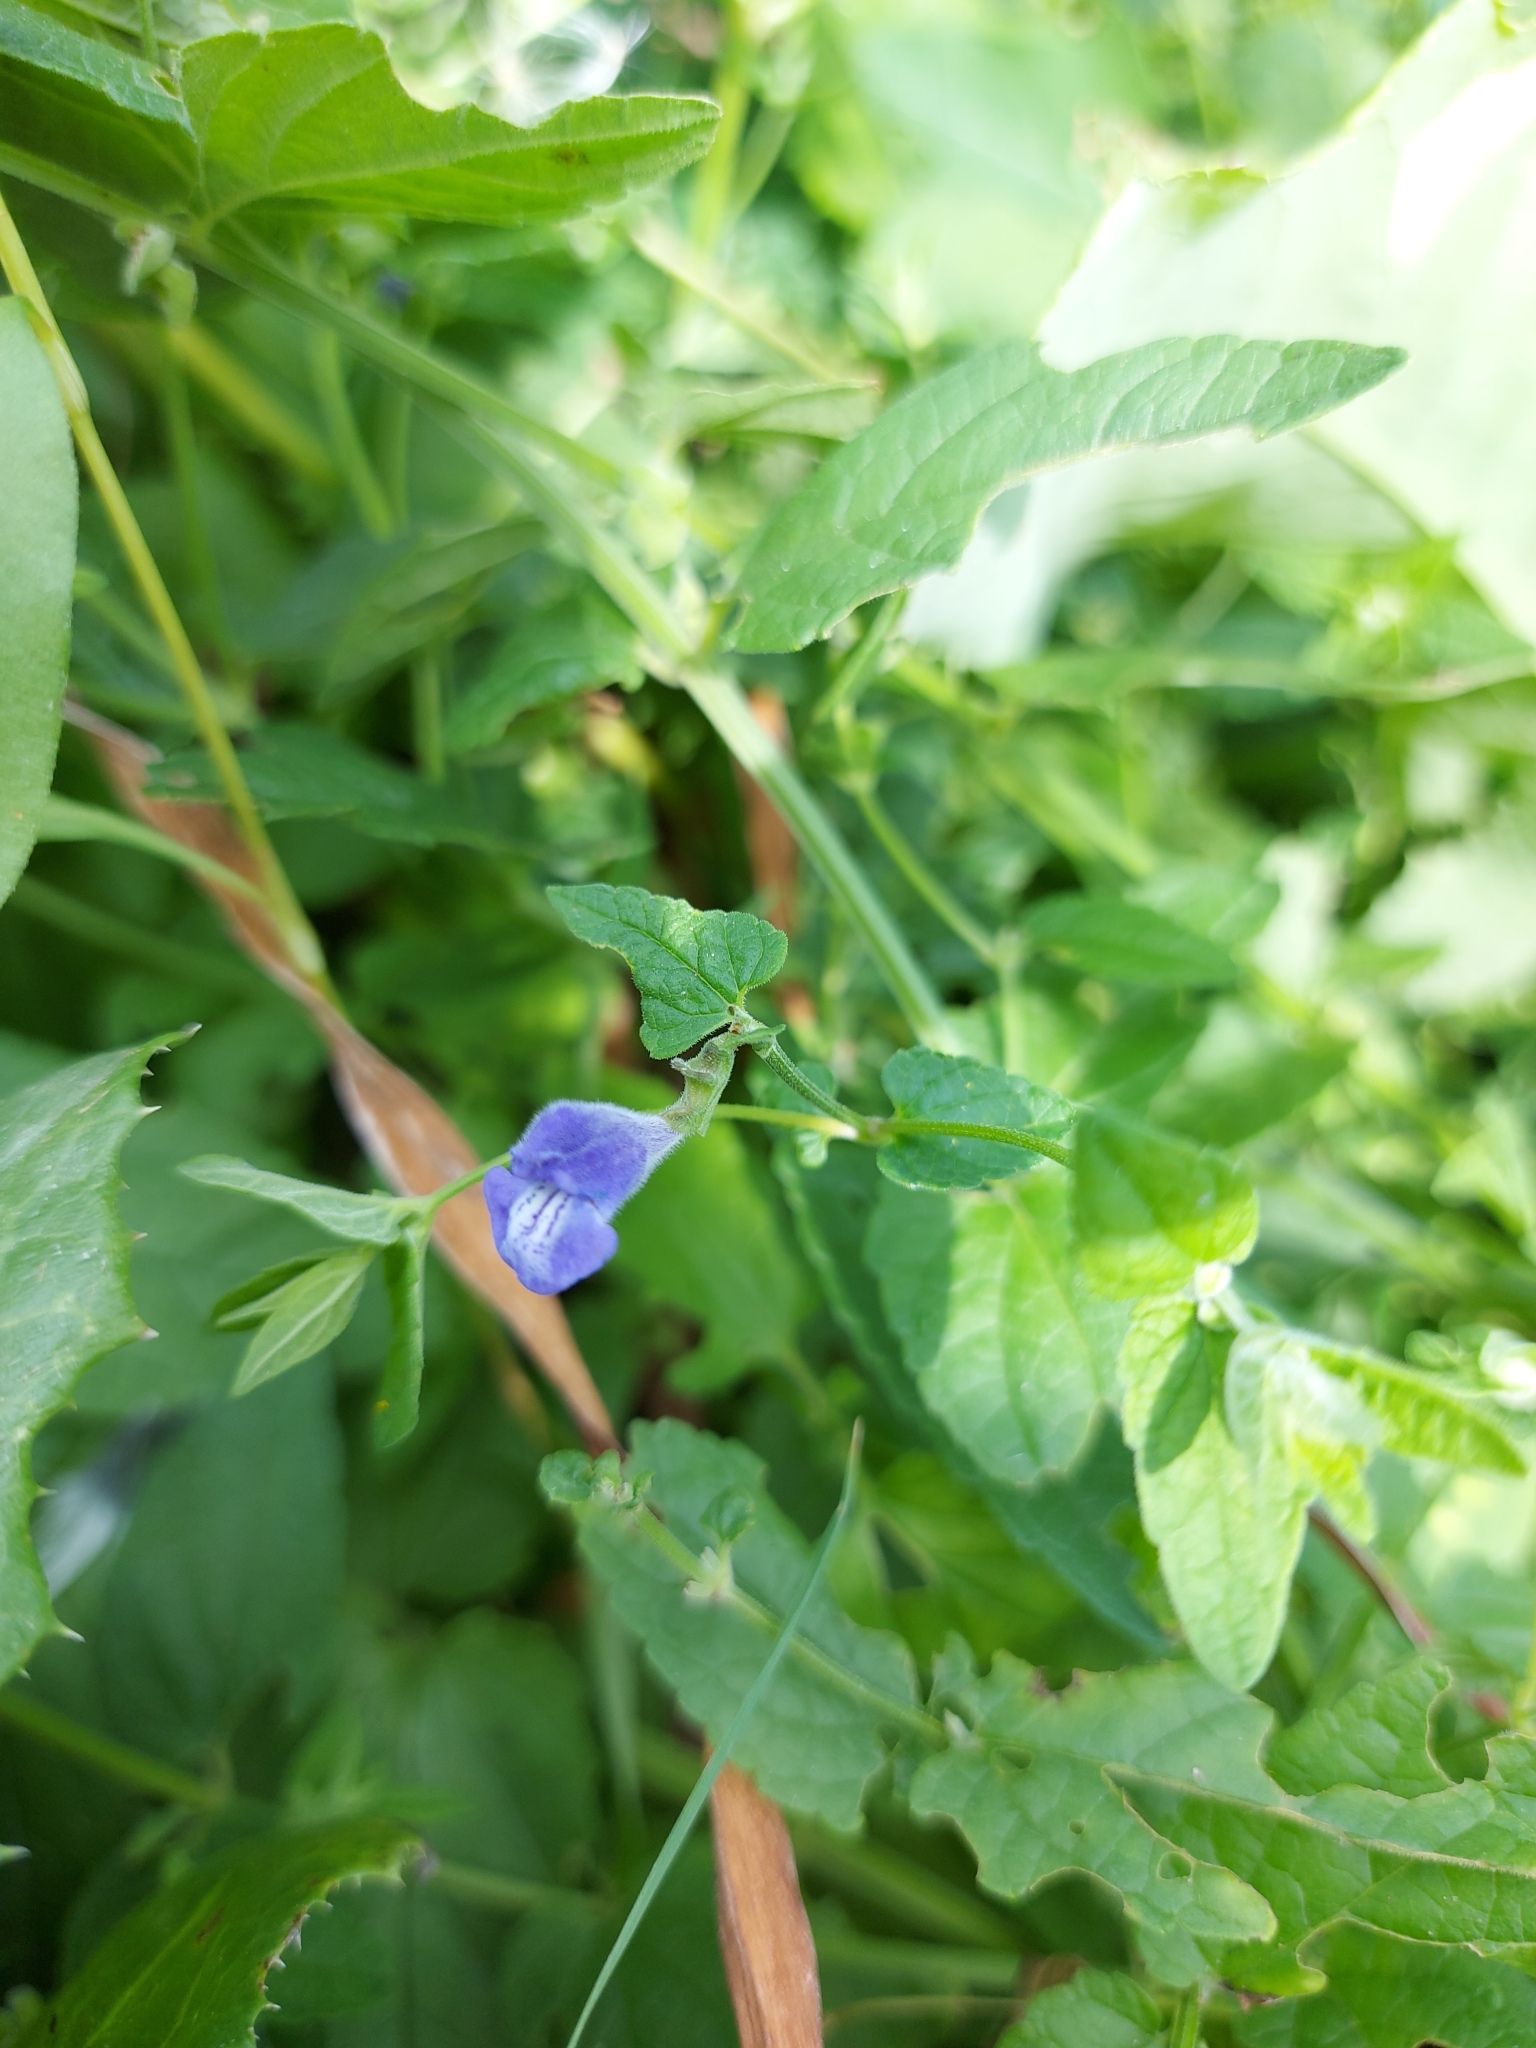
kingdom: Plantae
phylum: Tracheophyta
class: Magnoliopsida
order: Lamiales
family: Lamiaceae
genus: Scutellaria
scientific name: Scutellaria galericulata
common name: Skullcap
